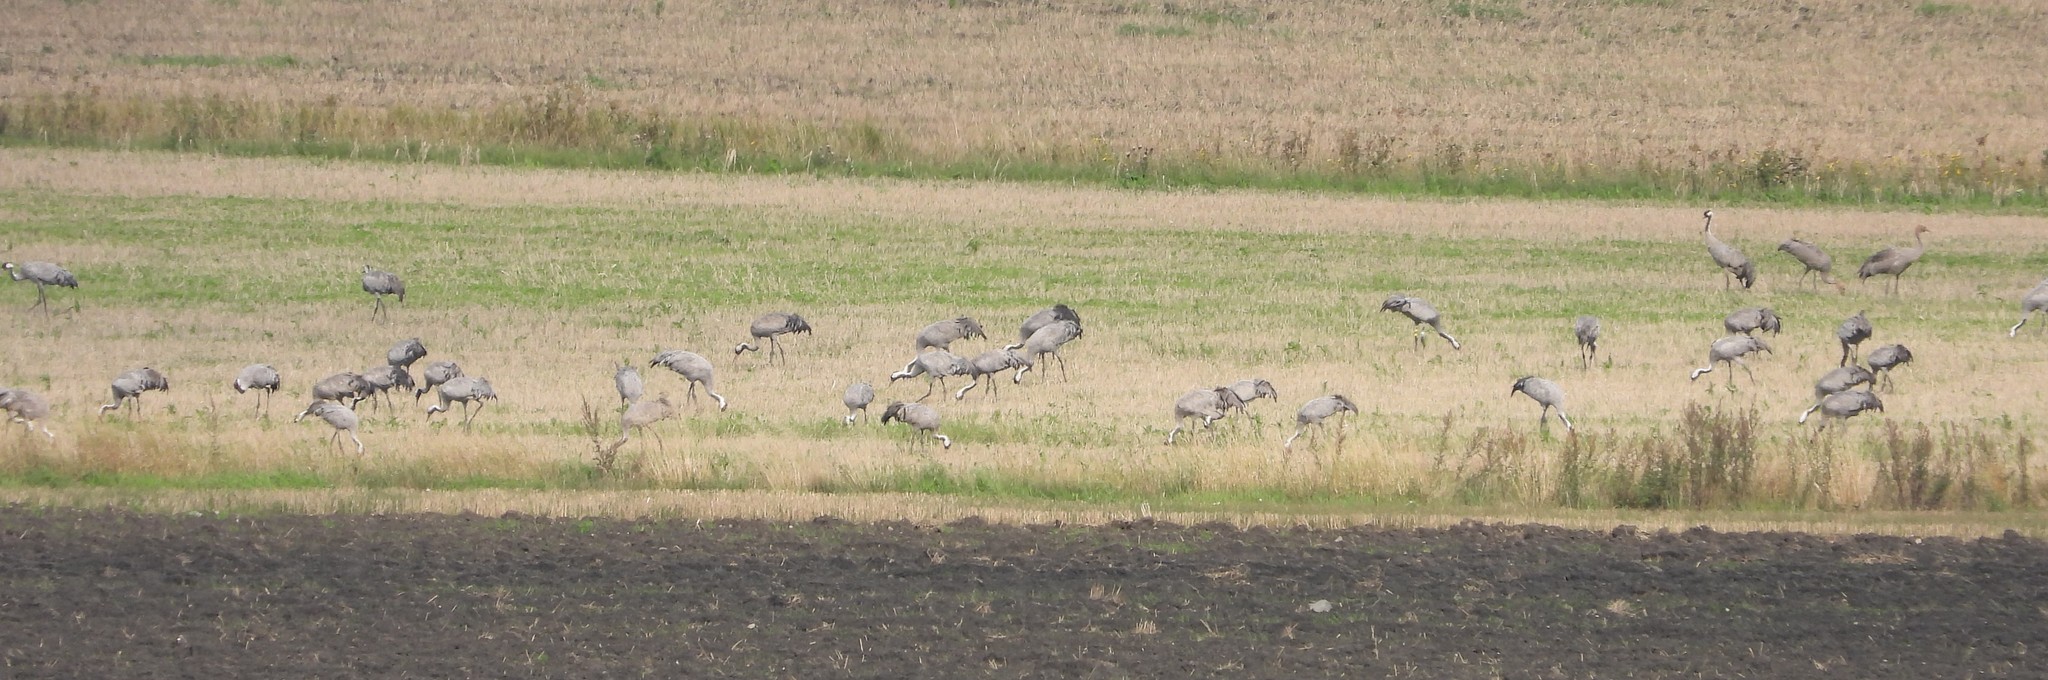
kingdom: Animalia
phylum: Chordata
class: Aves
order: Gruiformes
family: Gruidae
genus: Grus
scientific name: Grus grus
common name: Common crane
